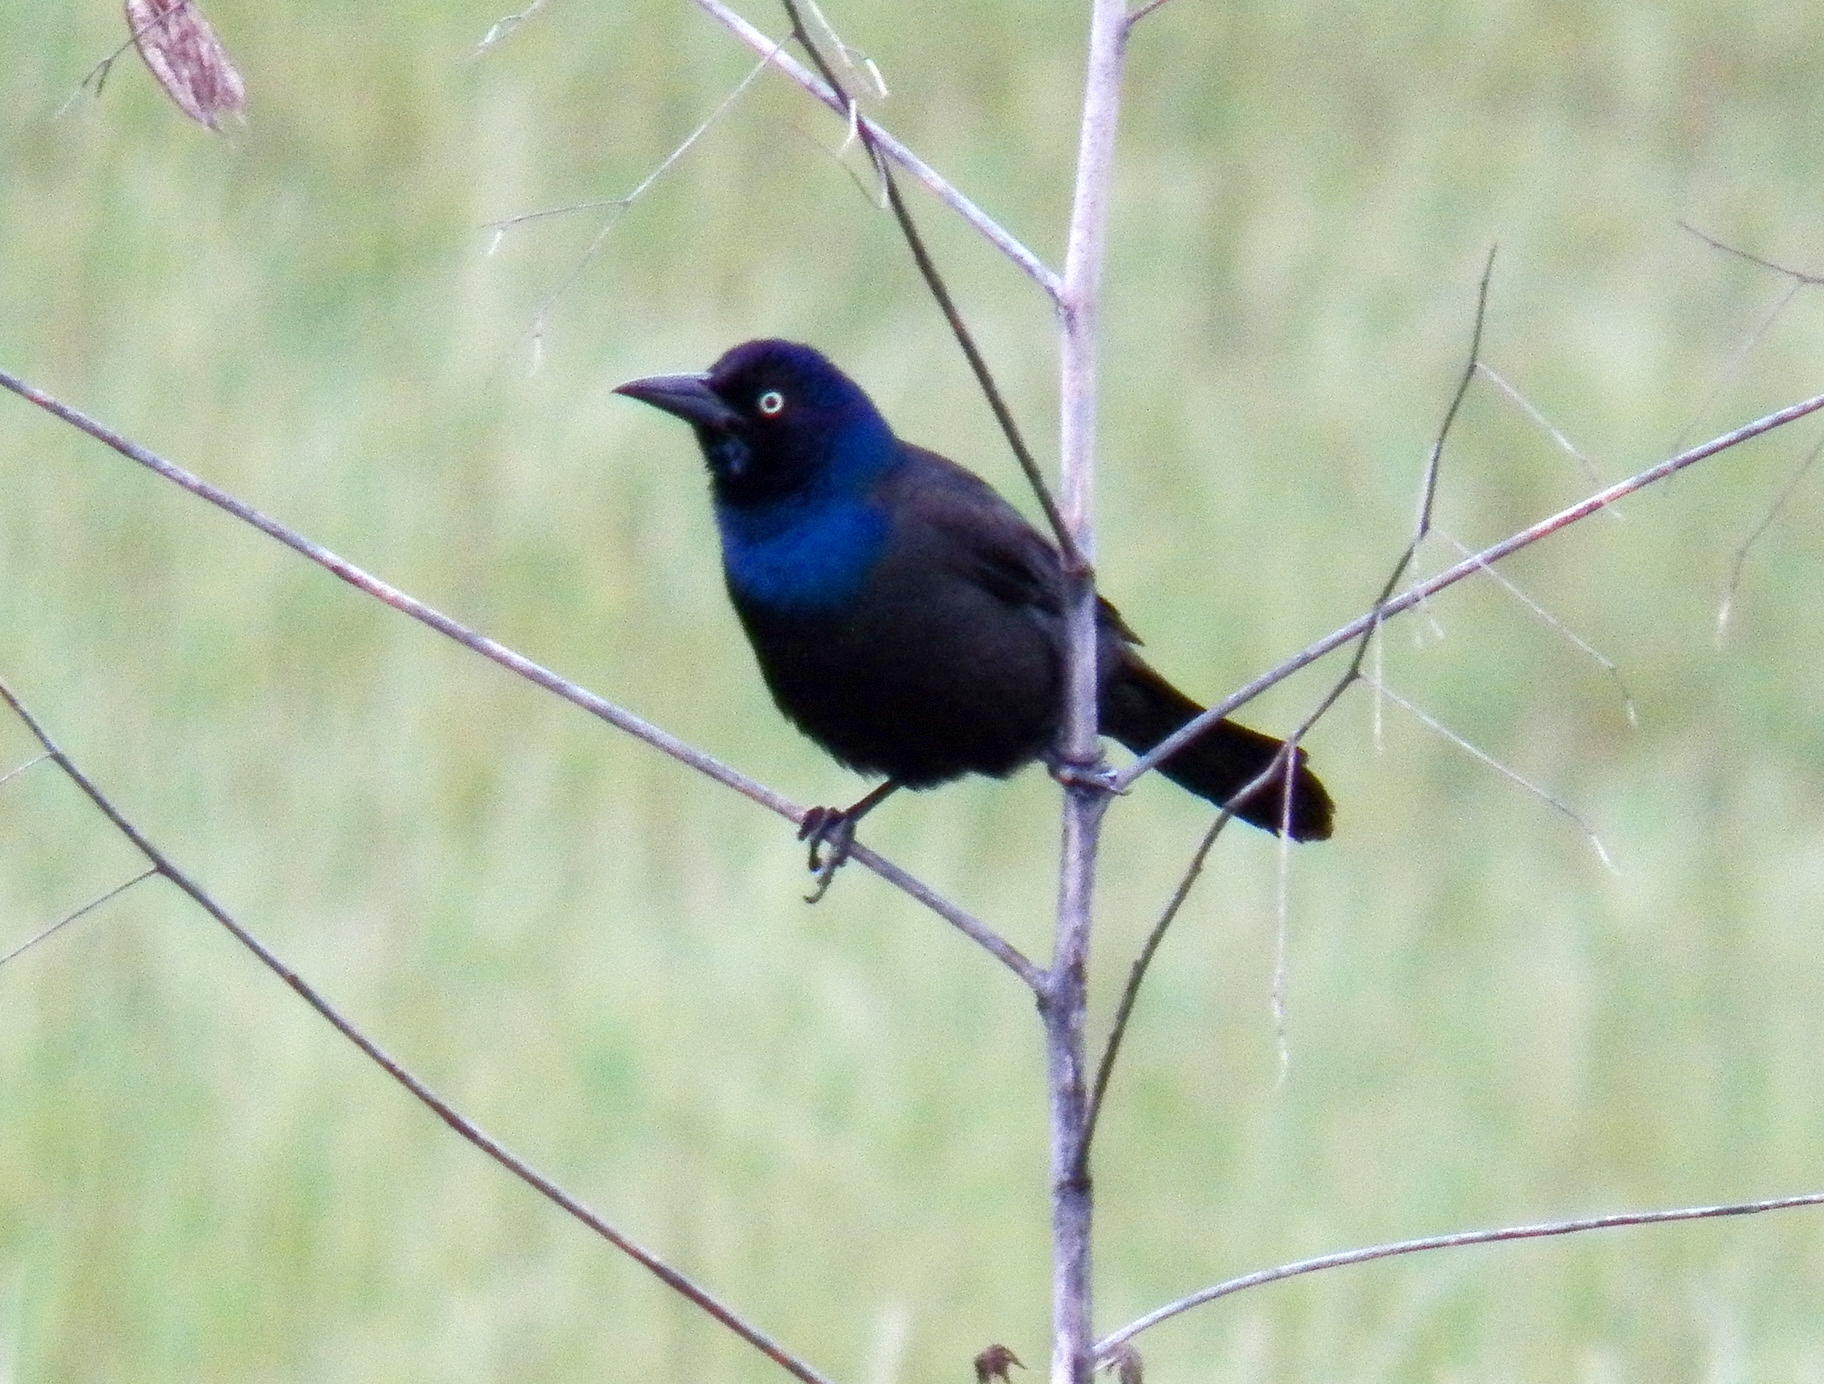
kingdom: Animalia
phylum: Chordata
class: Aves
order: Passeriformes
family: Icteridae
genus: Quiscalus
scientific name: Quiscalus quiscula
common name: Common grackle
